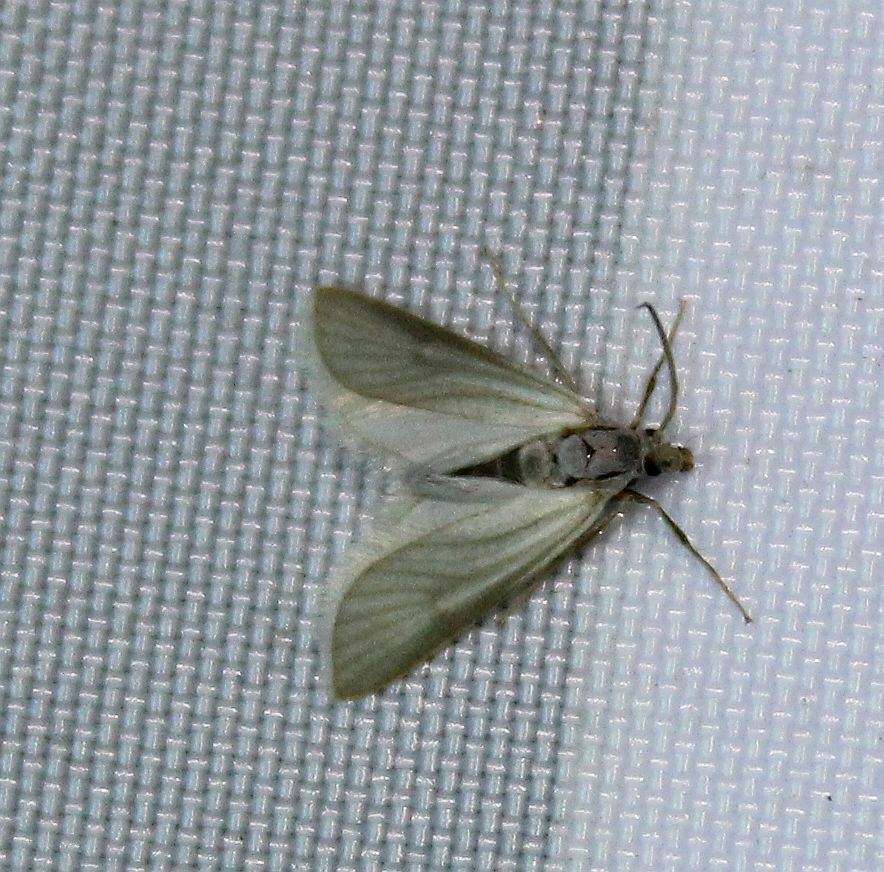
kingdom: Animalia
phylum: Arthropoda
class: Insecta
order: Lepidoptera
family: Crambidae
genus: Acentria
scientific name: Acentria ephemerella
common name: European water moth
